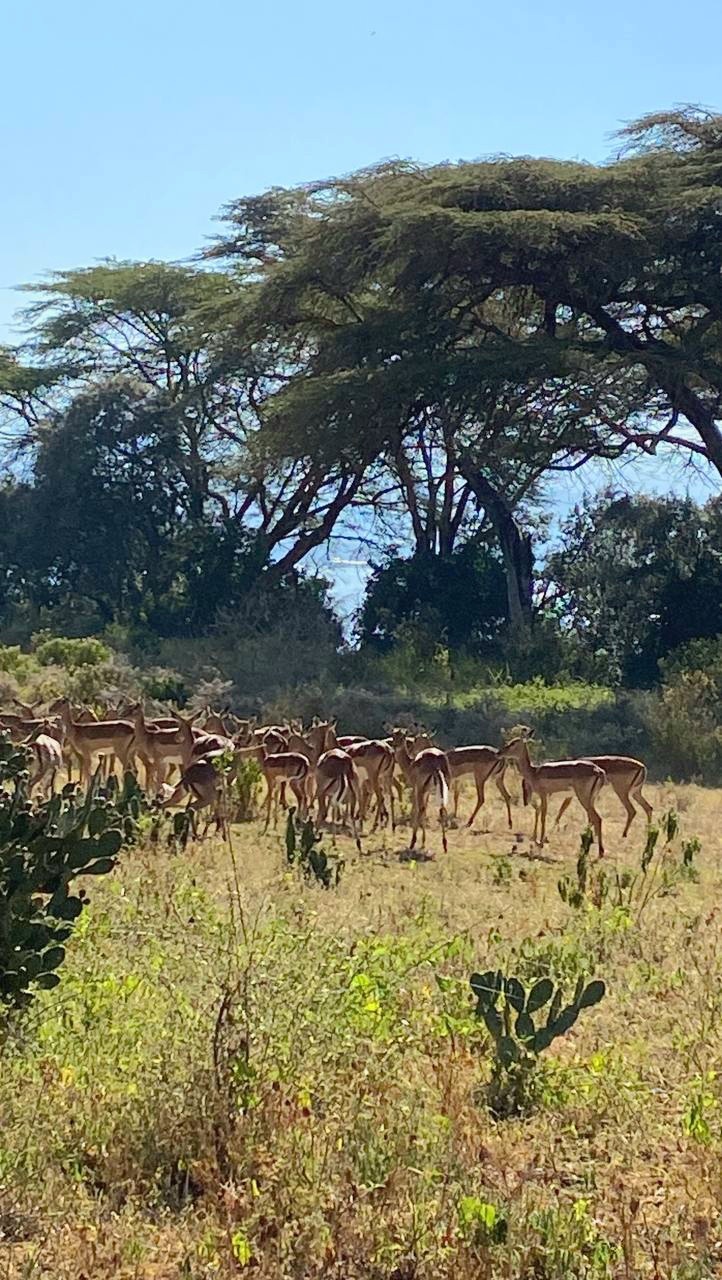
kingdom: Animalia
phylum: Chordata
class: Mammalia
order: Artiodactyla
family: Bovidae
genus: Aepyceros
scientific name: Aepyceros melampus
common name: Impala
